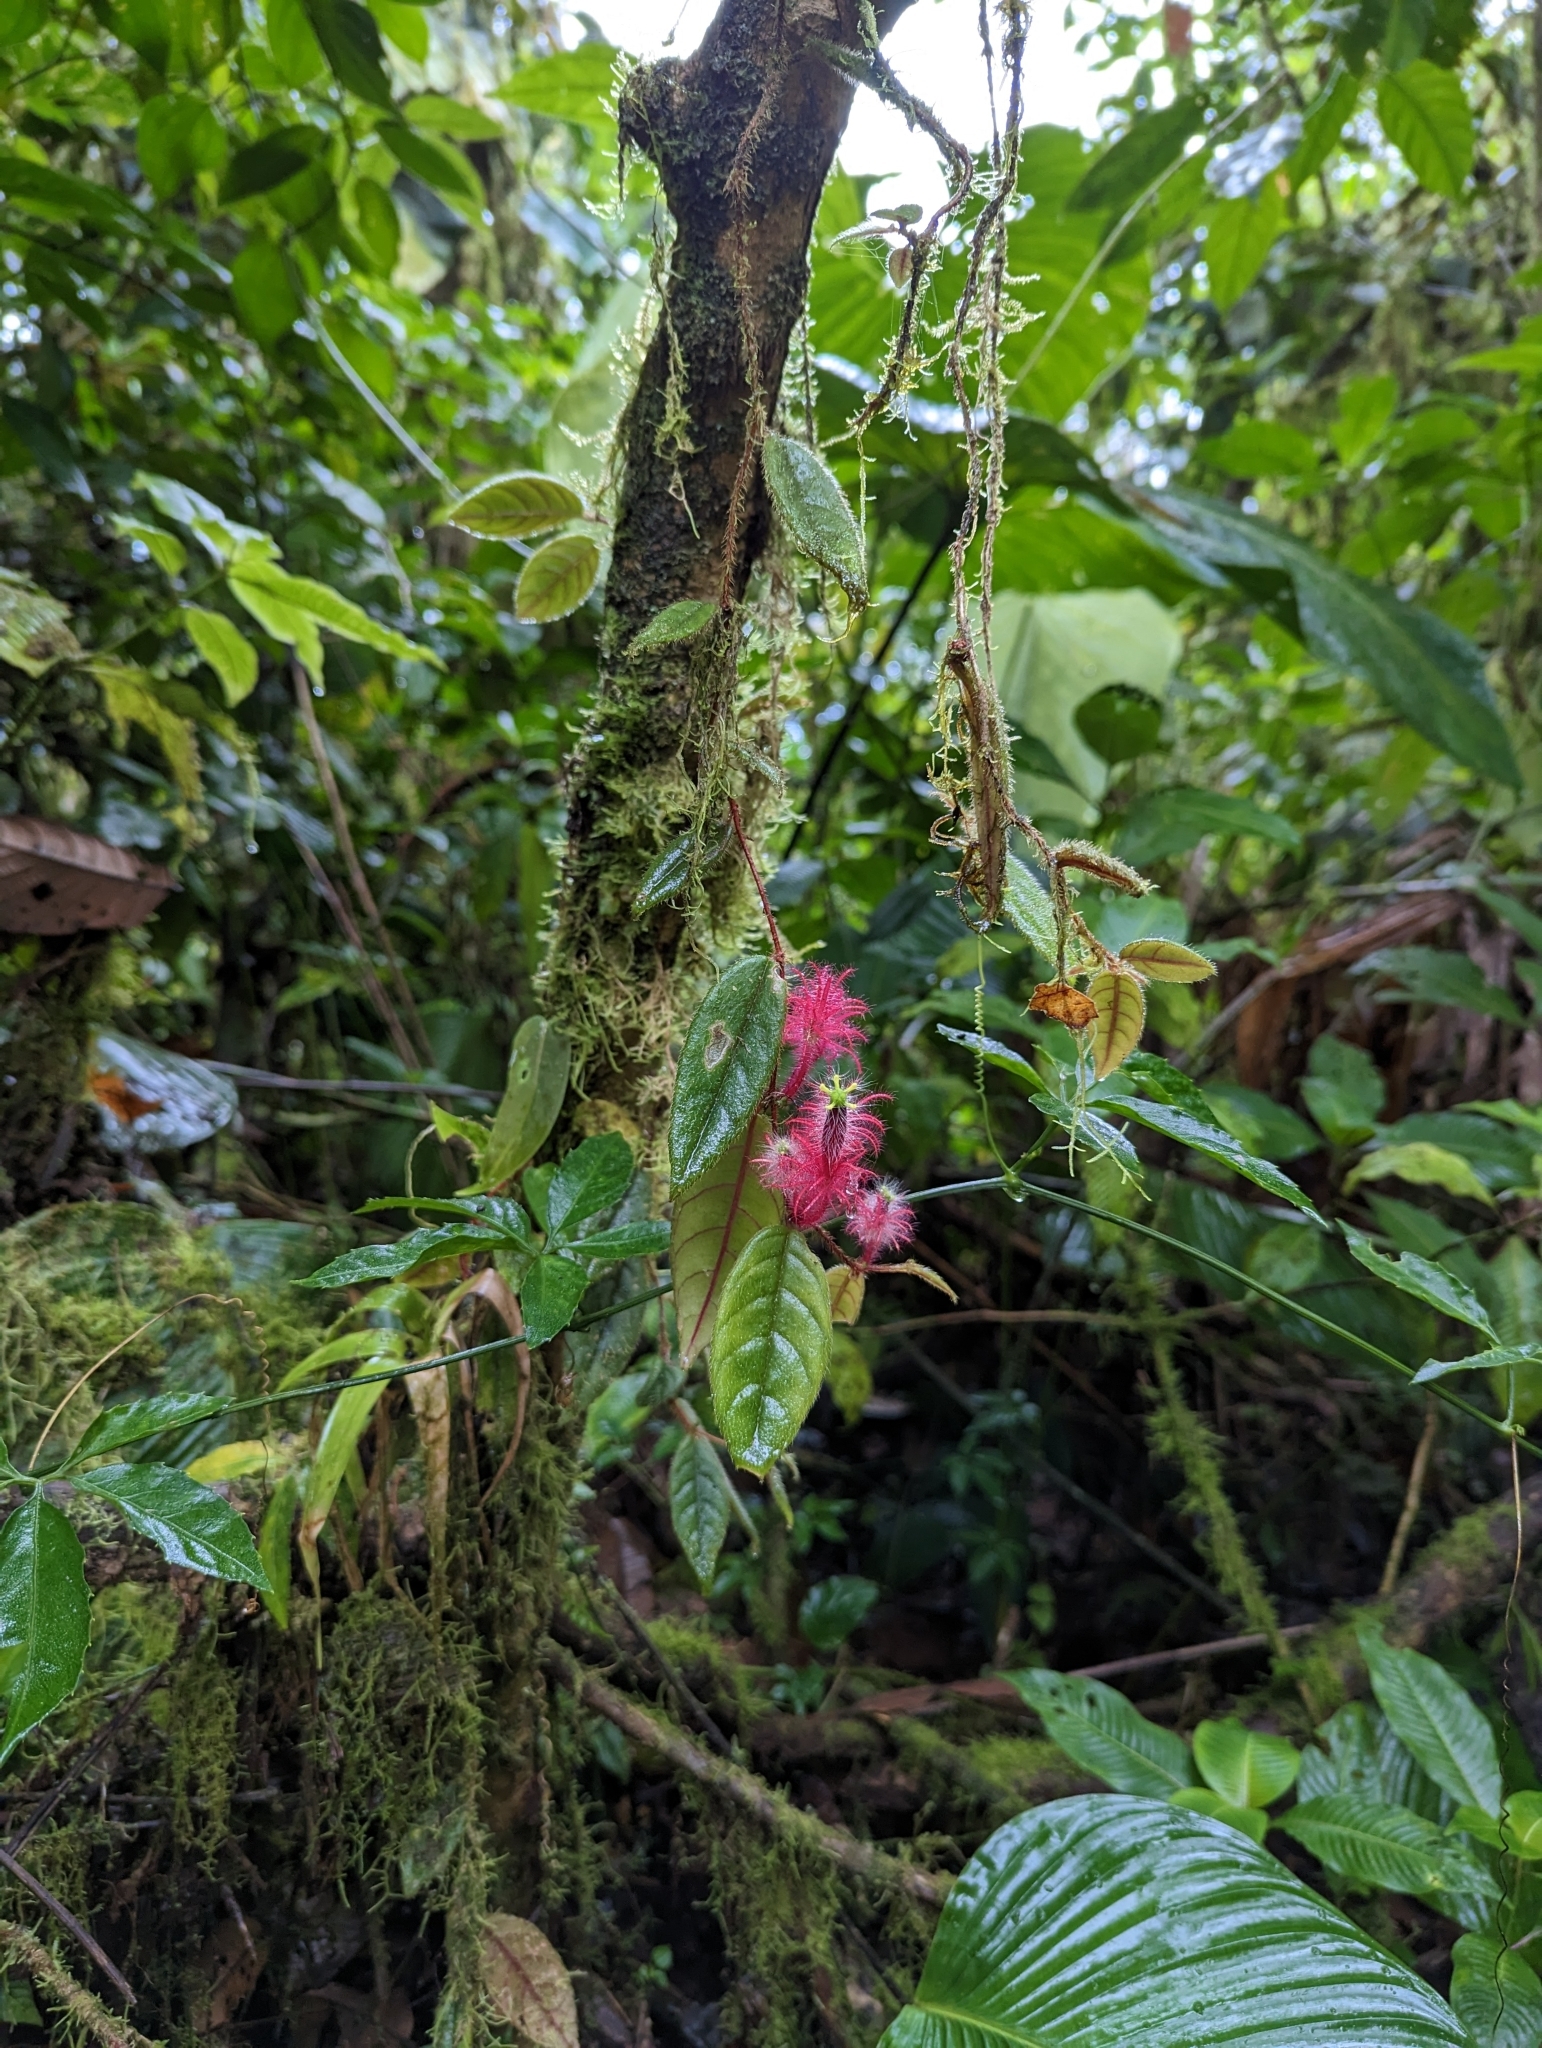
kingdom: Plantae
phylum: Tracheophyta
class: Magnoliopsida
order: Lamiales
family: Gesneriaceae
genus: Columnea
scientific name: Columnea minor
